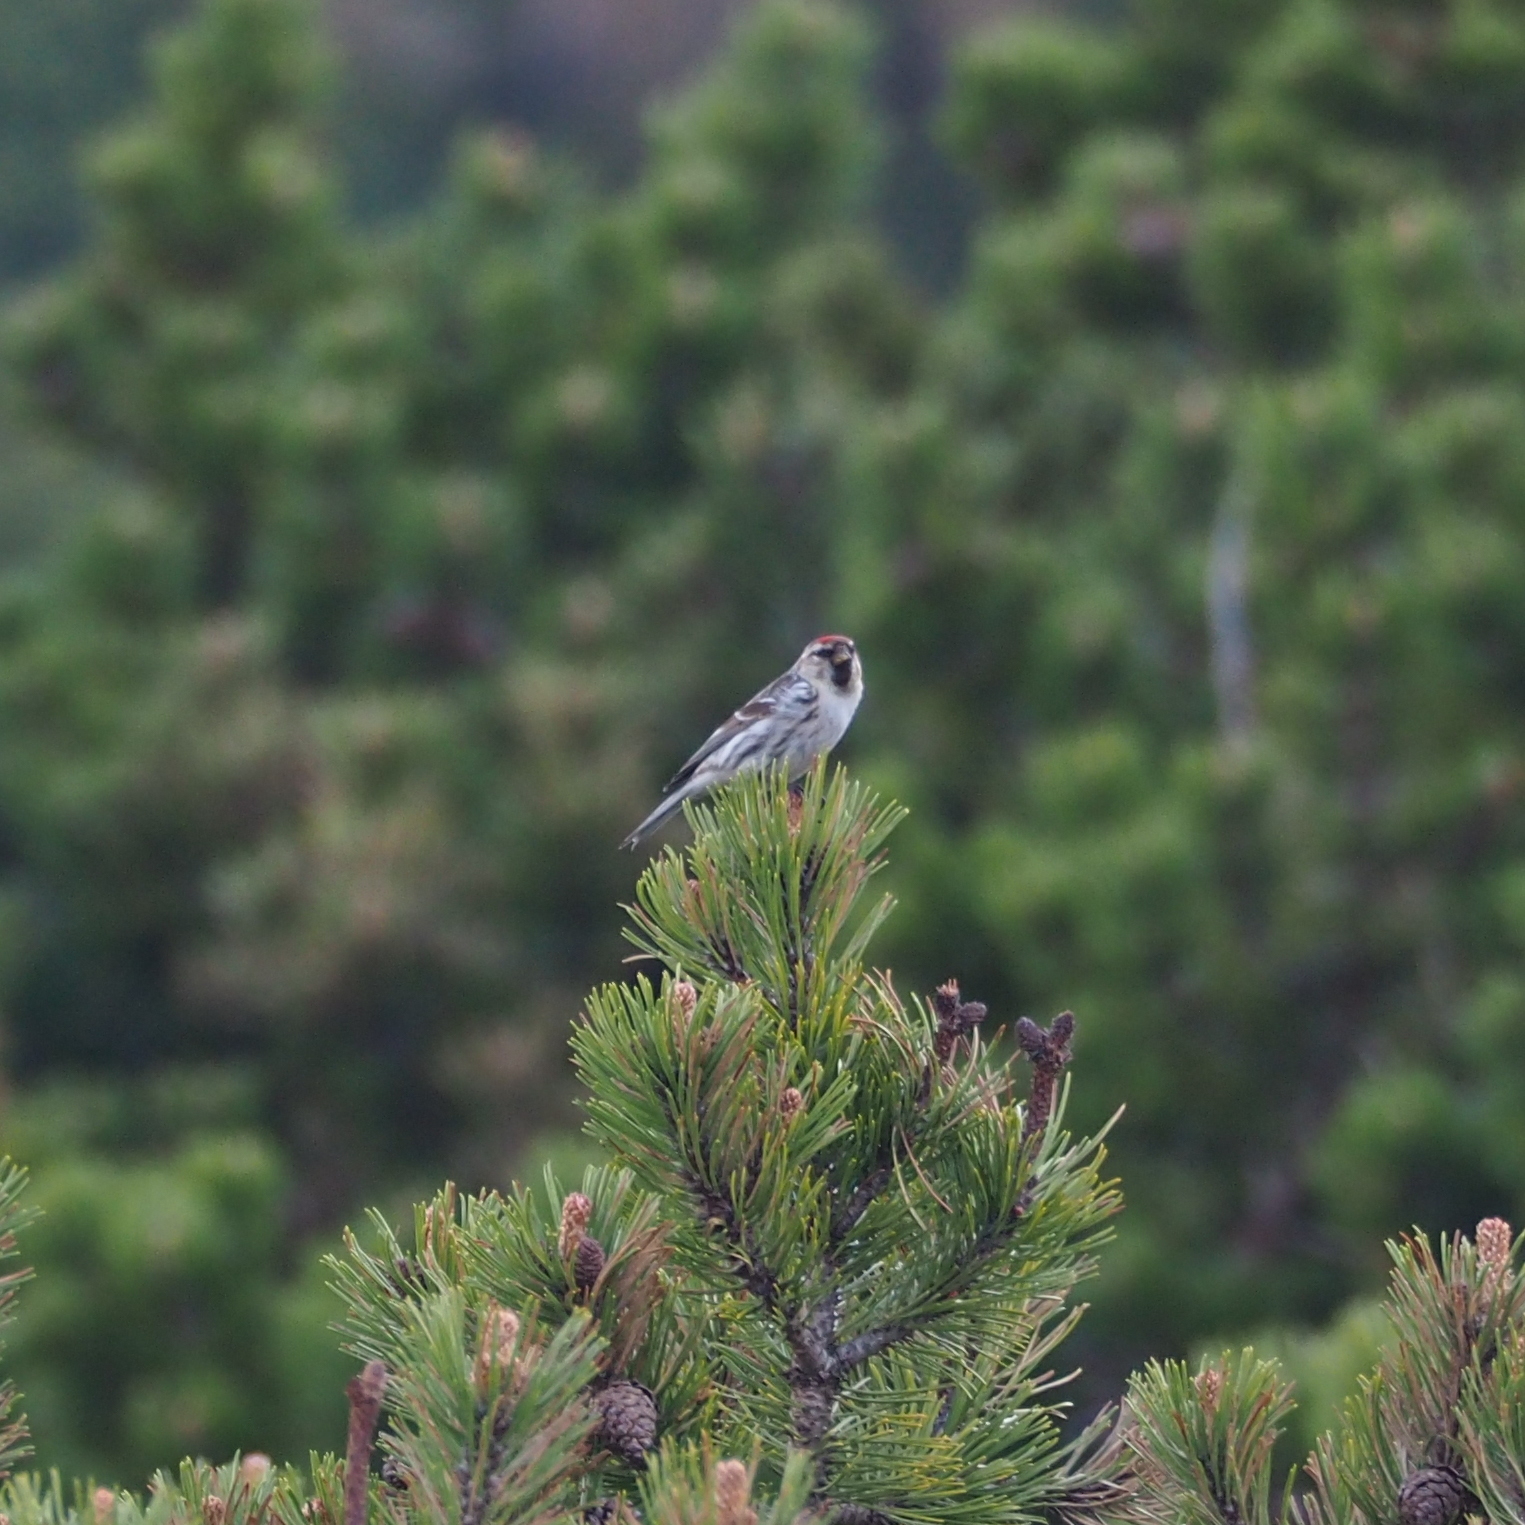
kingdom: Animalia
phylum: Chordata
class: Aves
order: Passeriformes
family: Fringillidae
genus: Acanthis
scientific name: Acanthis flammea
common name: Common redpoll
